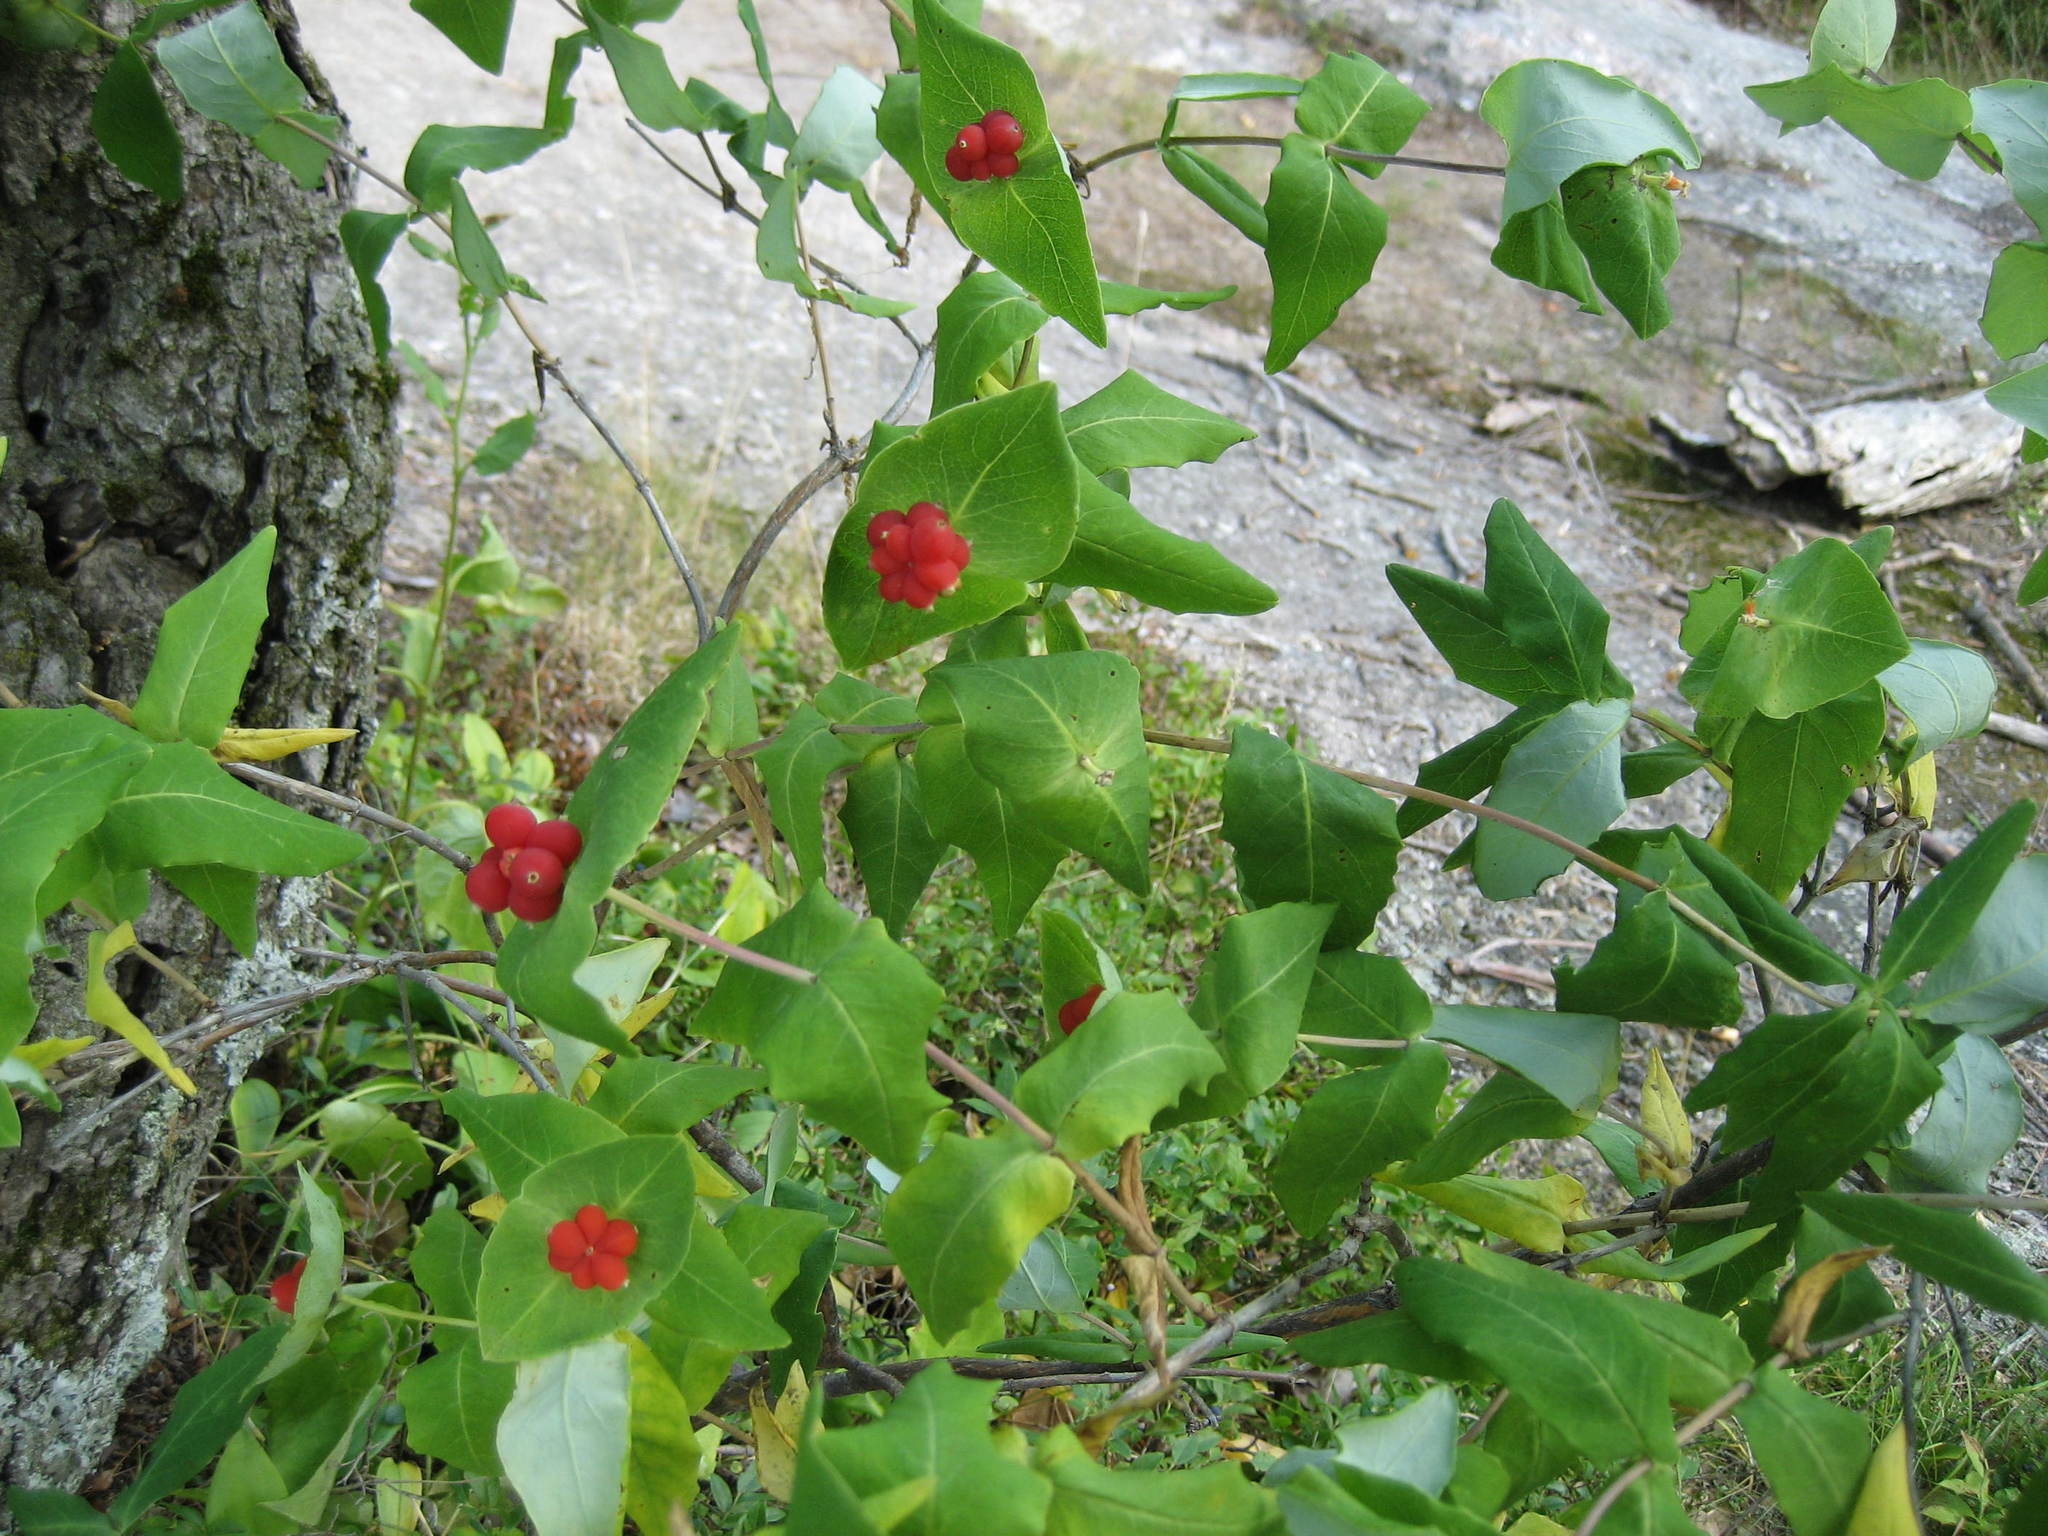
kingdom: Plantae
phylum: Tracheophyta
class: Magnoliopsida
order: Dipsacales
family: Caprifoliaceae
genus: Lonicera
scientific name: Lonicera dioica
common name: Limber honeysuckle
